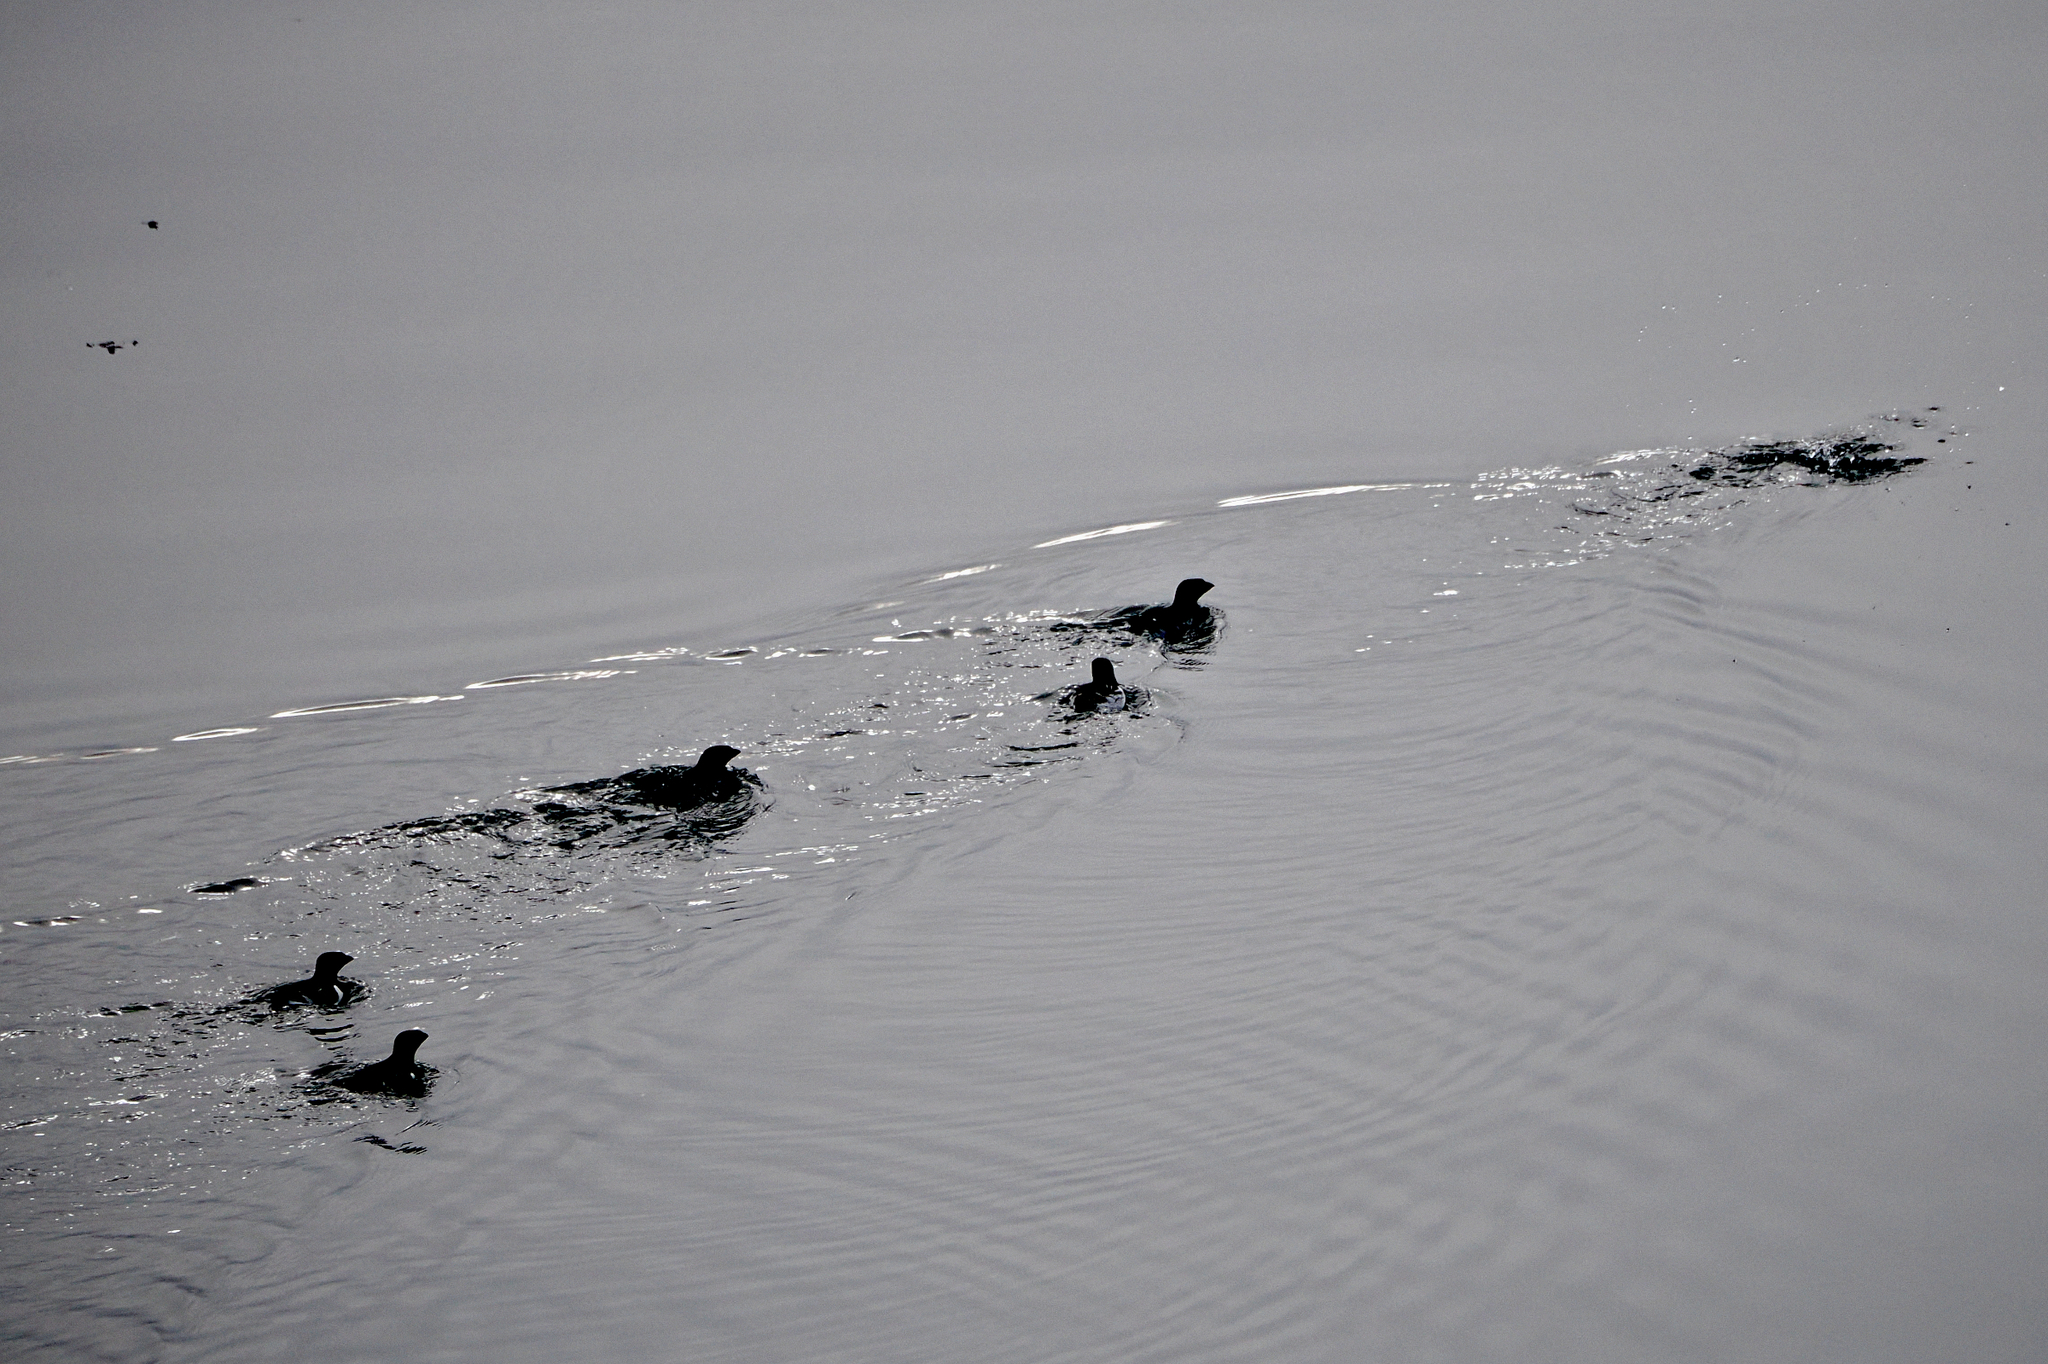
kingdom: Animalia
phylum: Chordata
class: Aves
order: Charadriiformes
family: Alcidae
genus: Alle
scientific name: Alle alle
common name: Little auk
